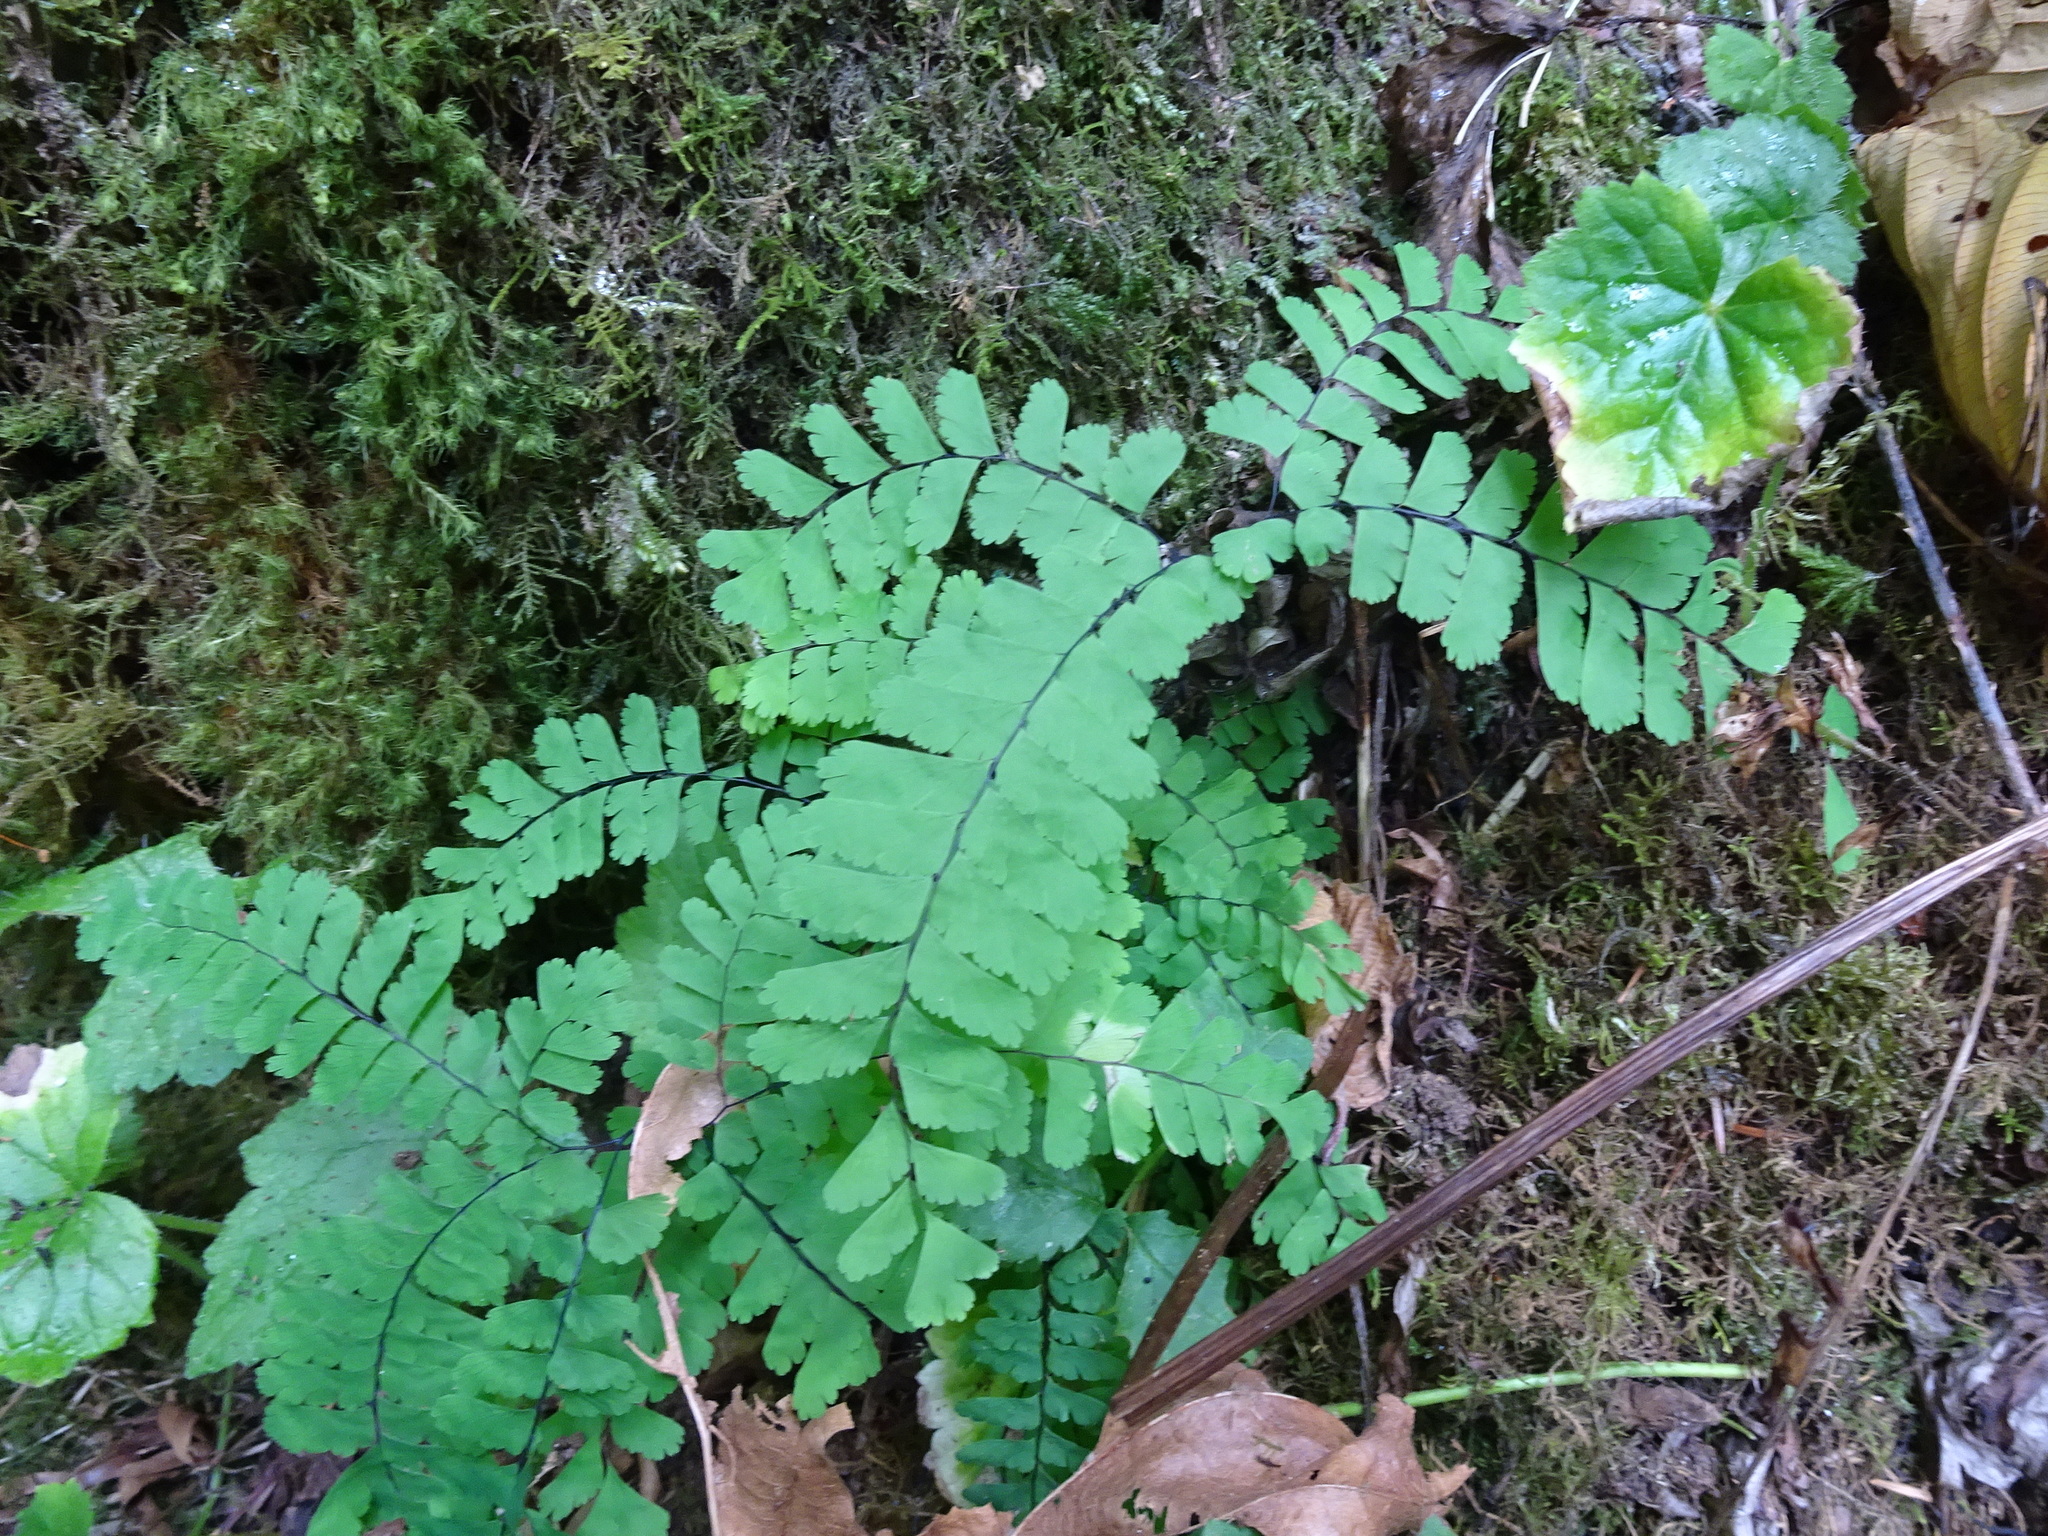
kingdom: Plantae
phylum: Tracheophyta
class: Polypodiopsida
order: Polypodiales
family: Pteridaceae
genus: Adiantum
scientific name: Adiantum aleuticum
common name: Aleutian maidenhair fern
